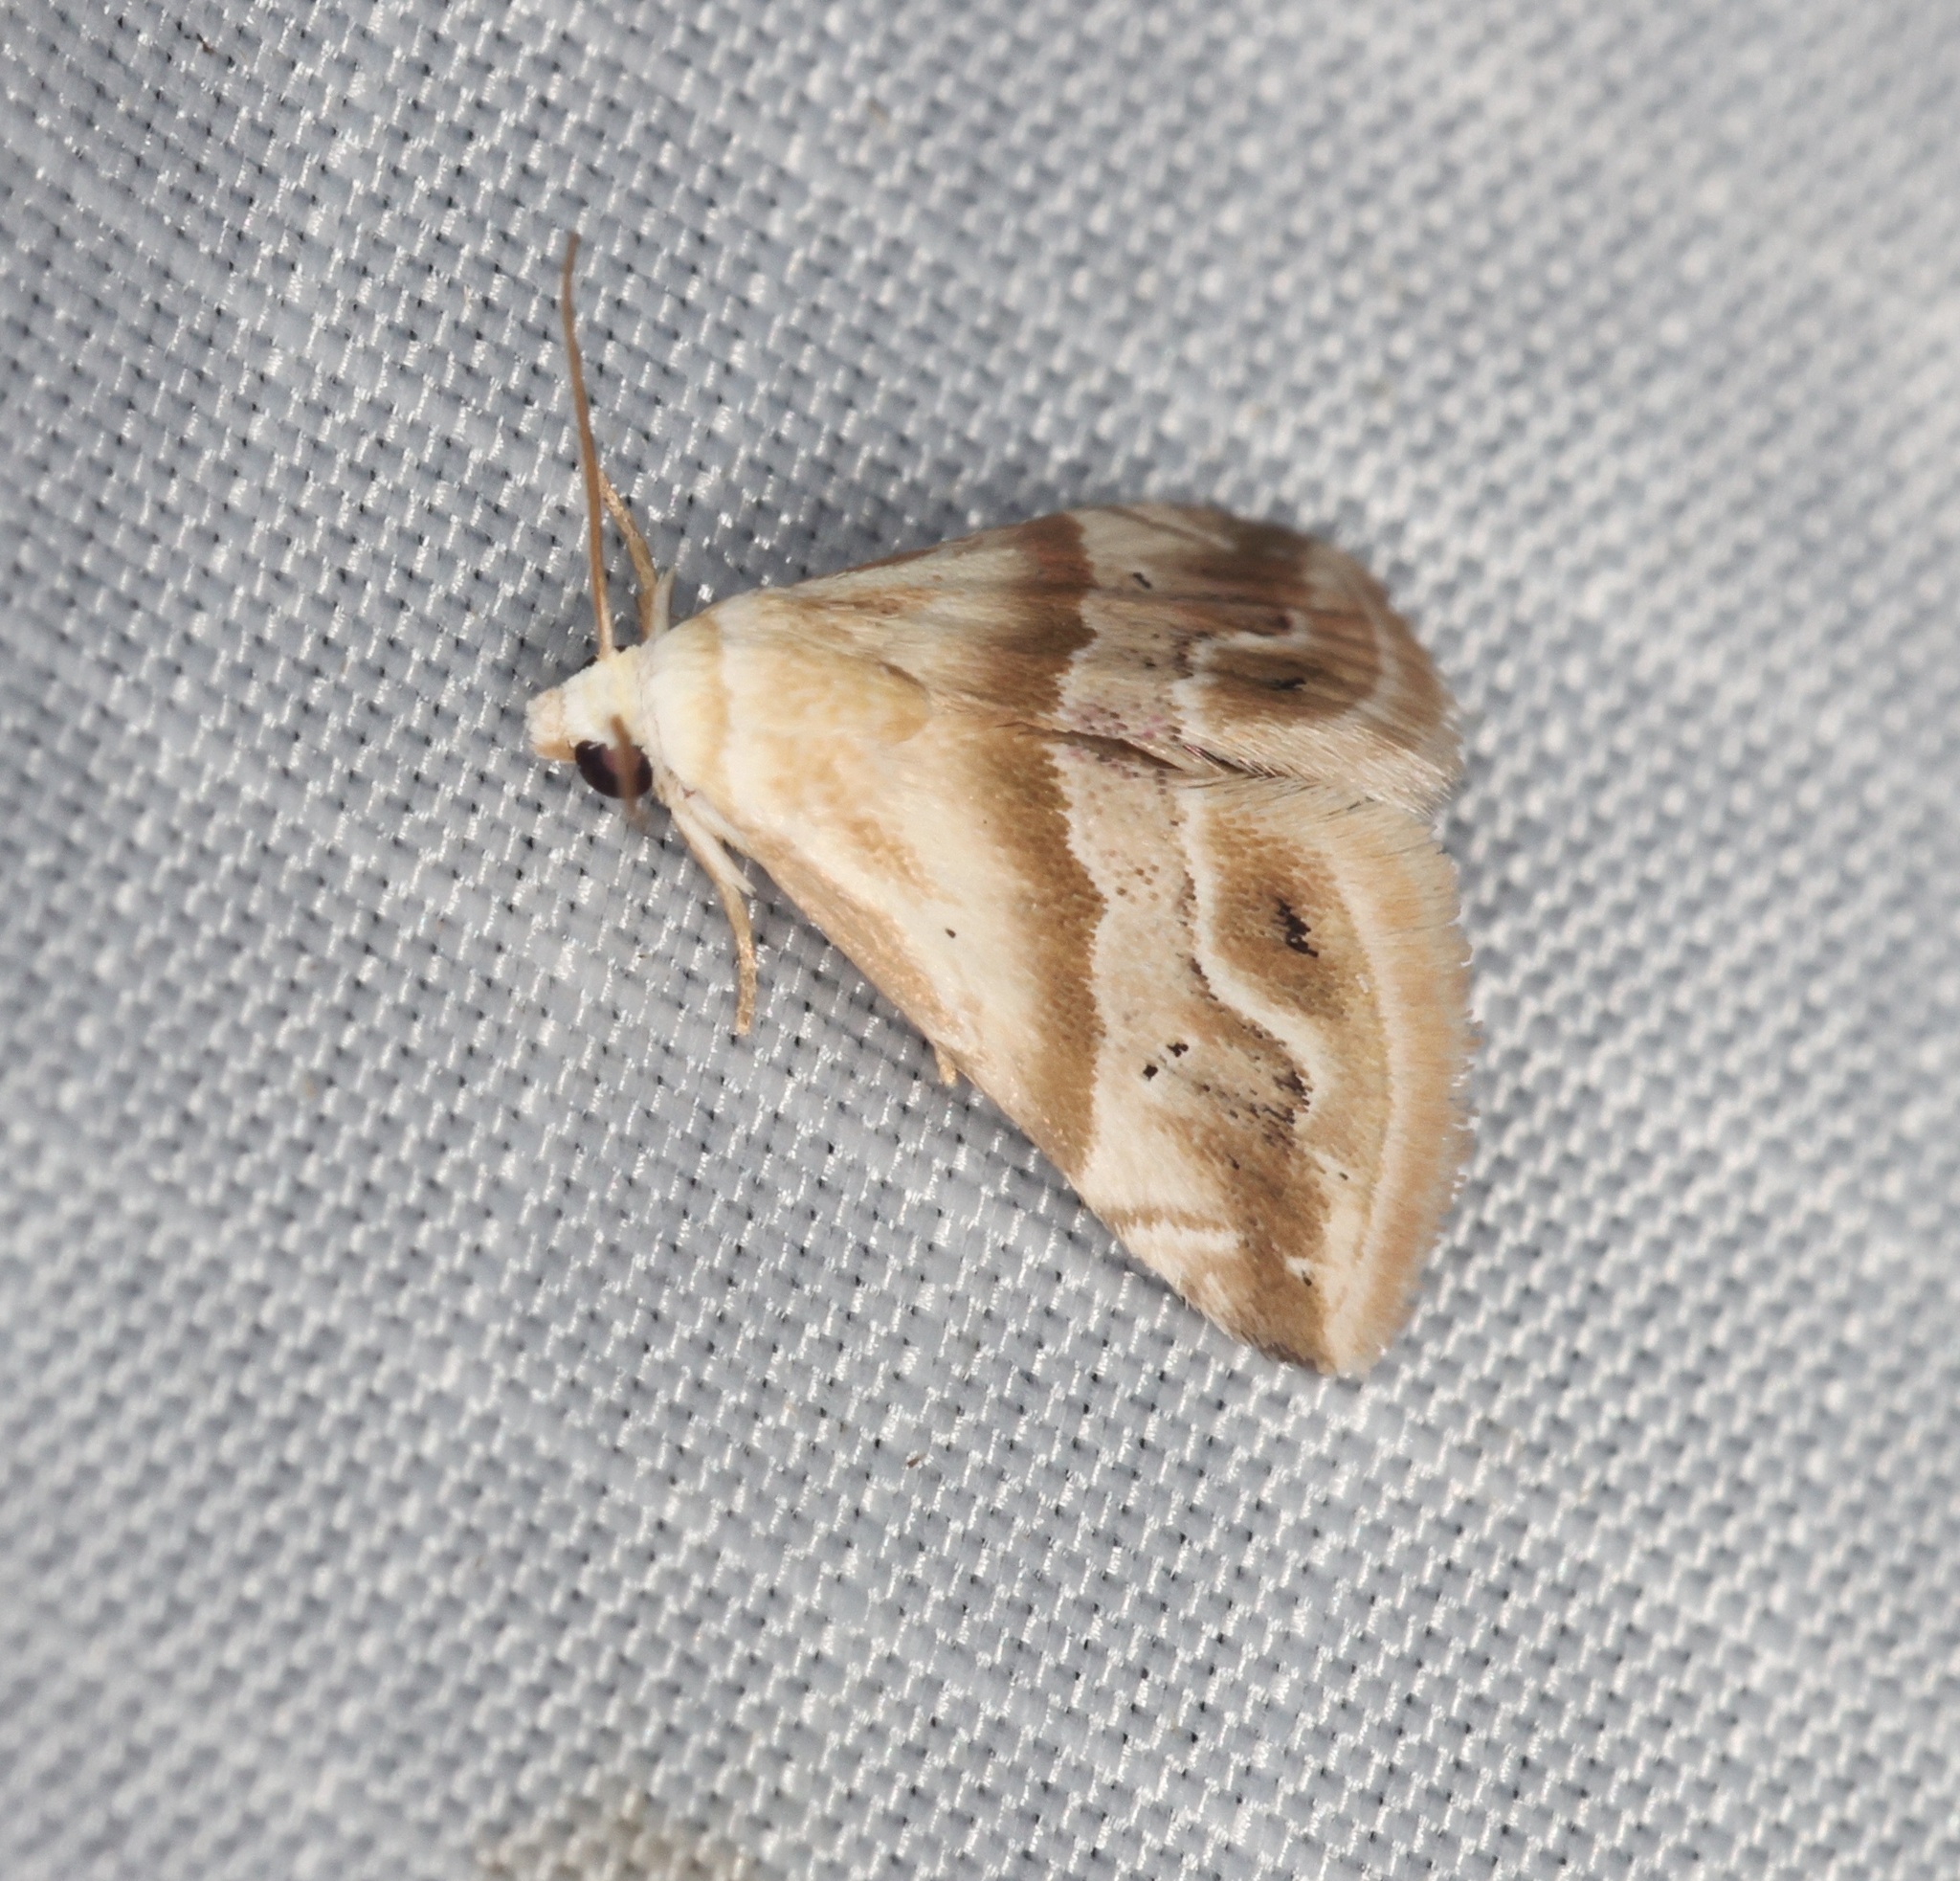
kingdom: Animalia
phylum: Arthropoda
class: Insecta
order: Lepidoptera
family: Noctuidae
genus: Eublemma
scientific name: Eublemma roseana
